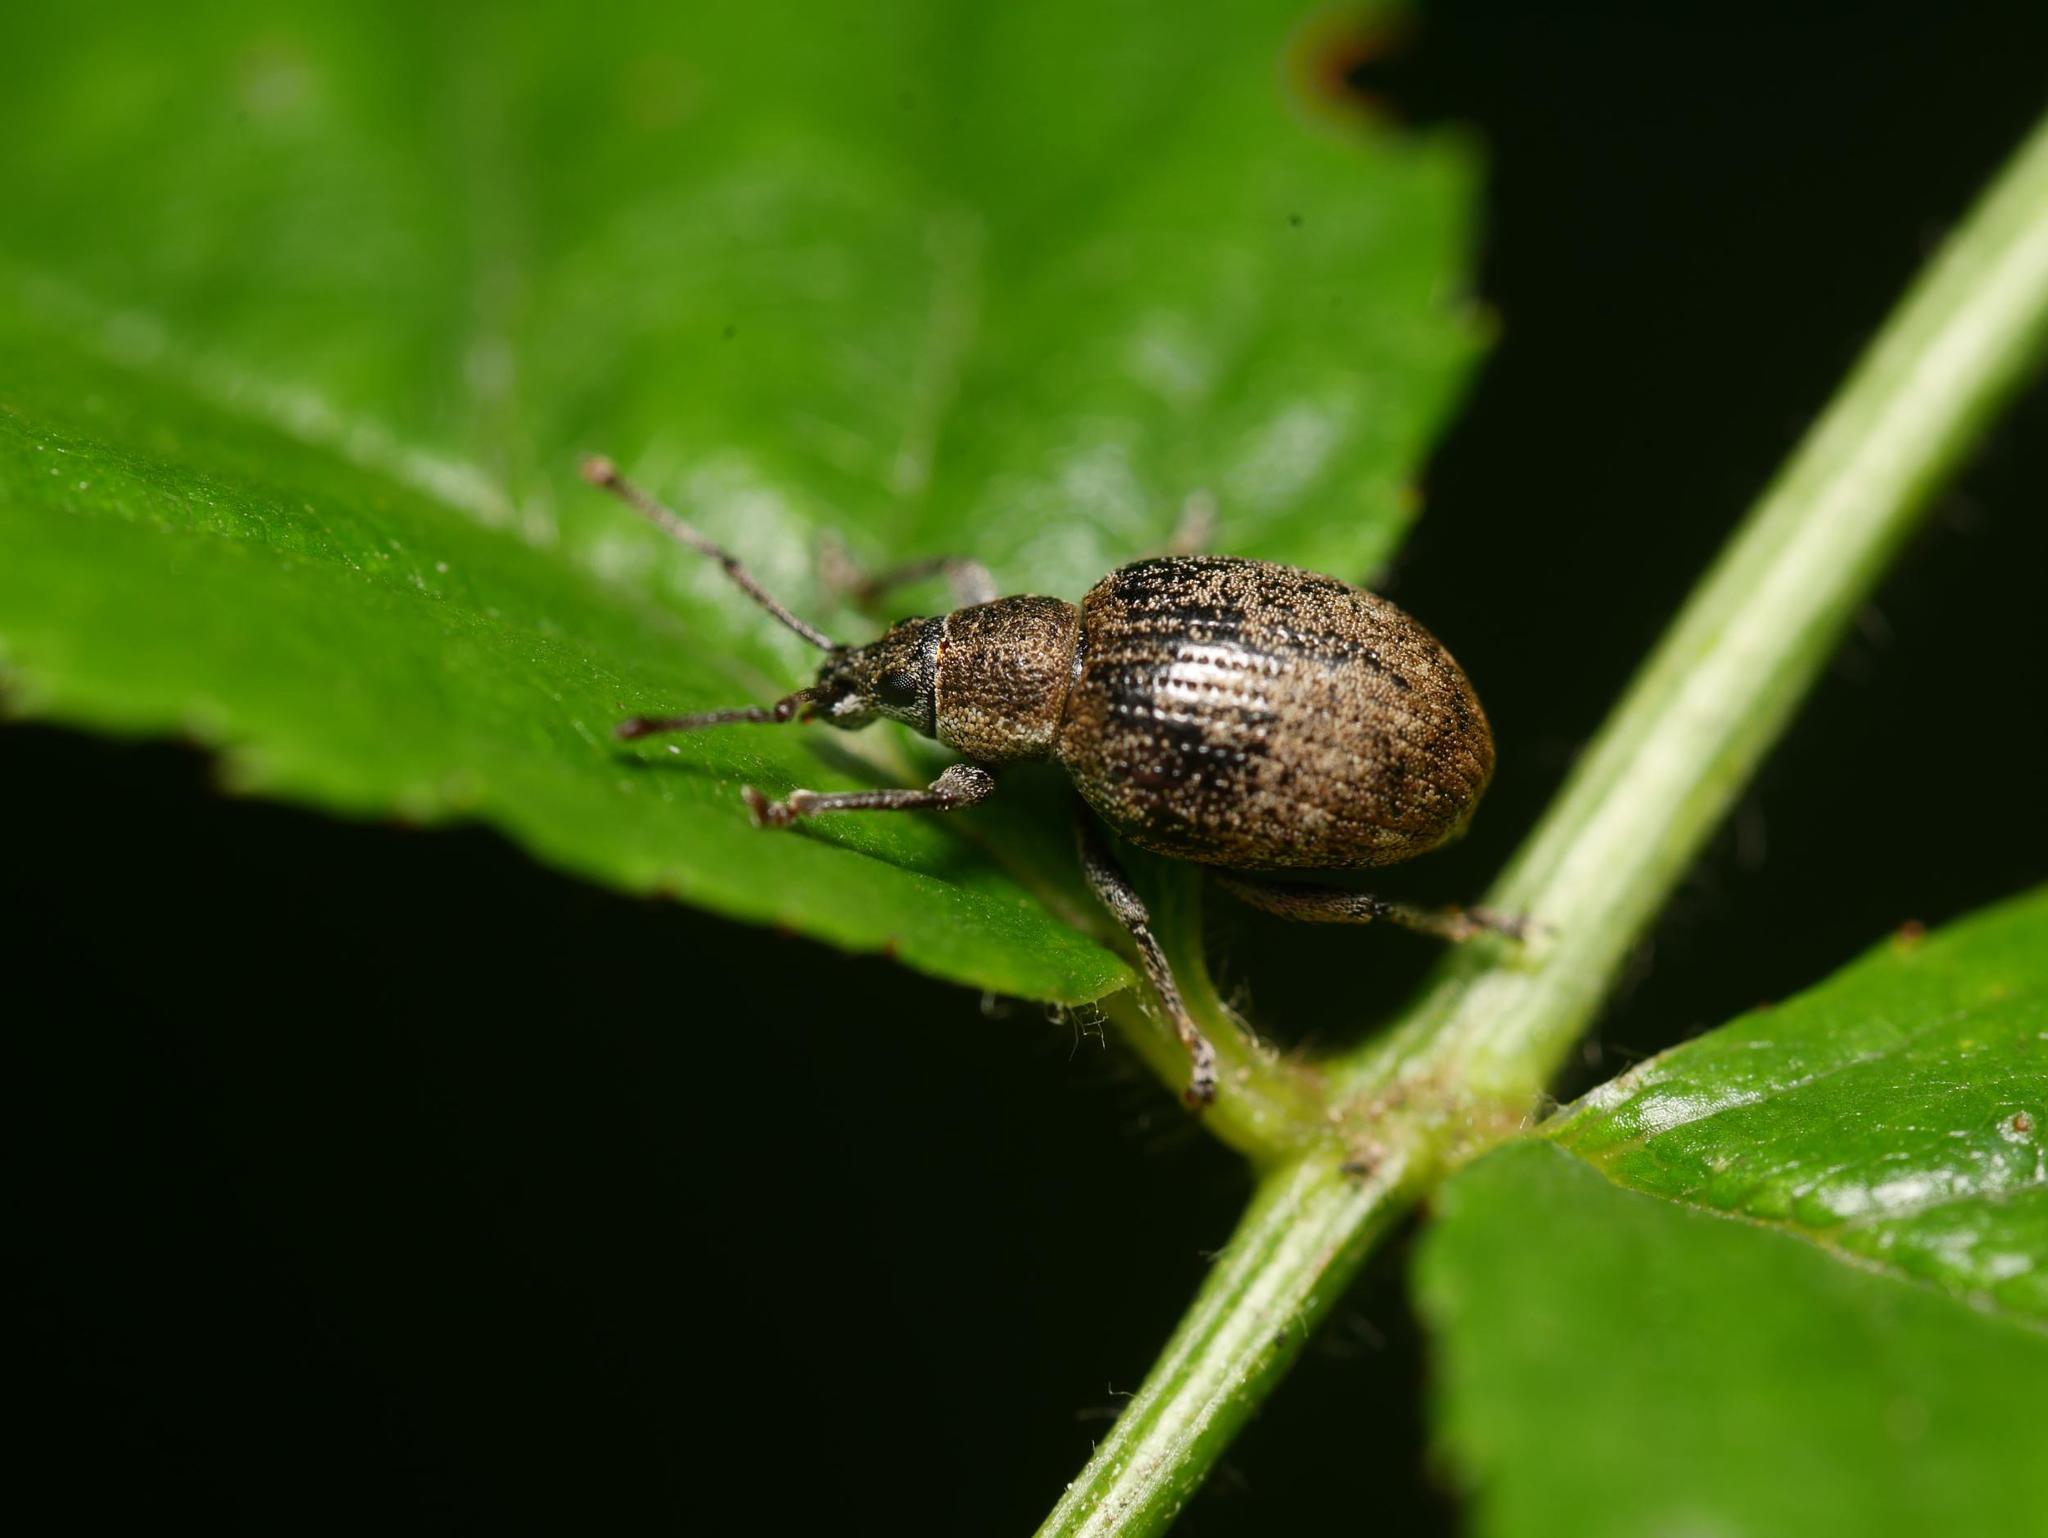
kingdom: Animalia
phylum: Arthropoda
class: Insecta
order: Coleoptera
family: Curculionidae
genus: Peritelus
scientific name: Peritelus sphaeroides
